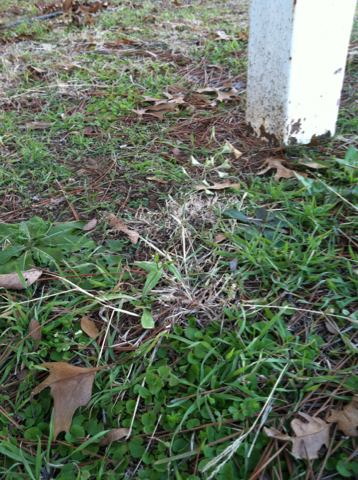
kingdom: Plantae
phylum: Tracheophyta
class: Magnoliopsida
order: Brassicales
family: Brassicaceae
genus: Capsella
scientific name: Capsella bursa-pastoris
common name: Shepherd's purse
